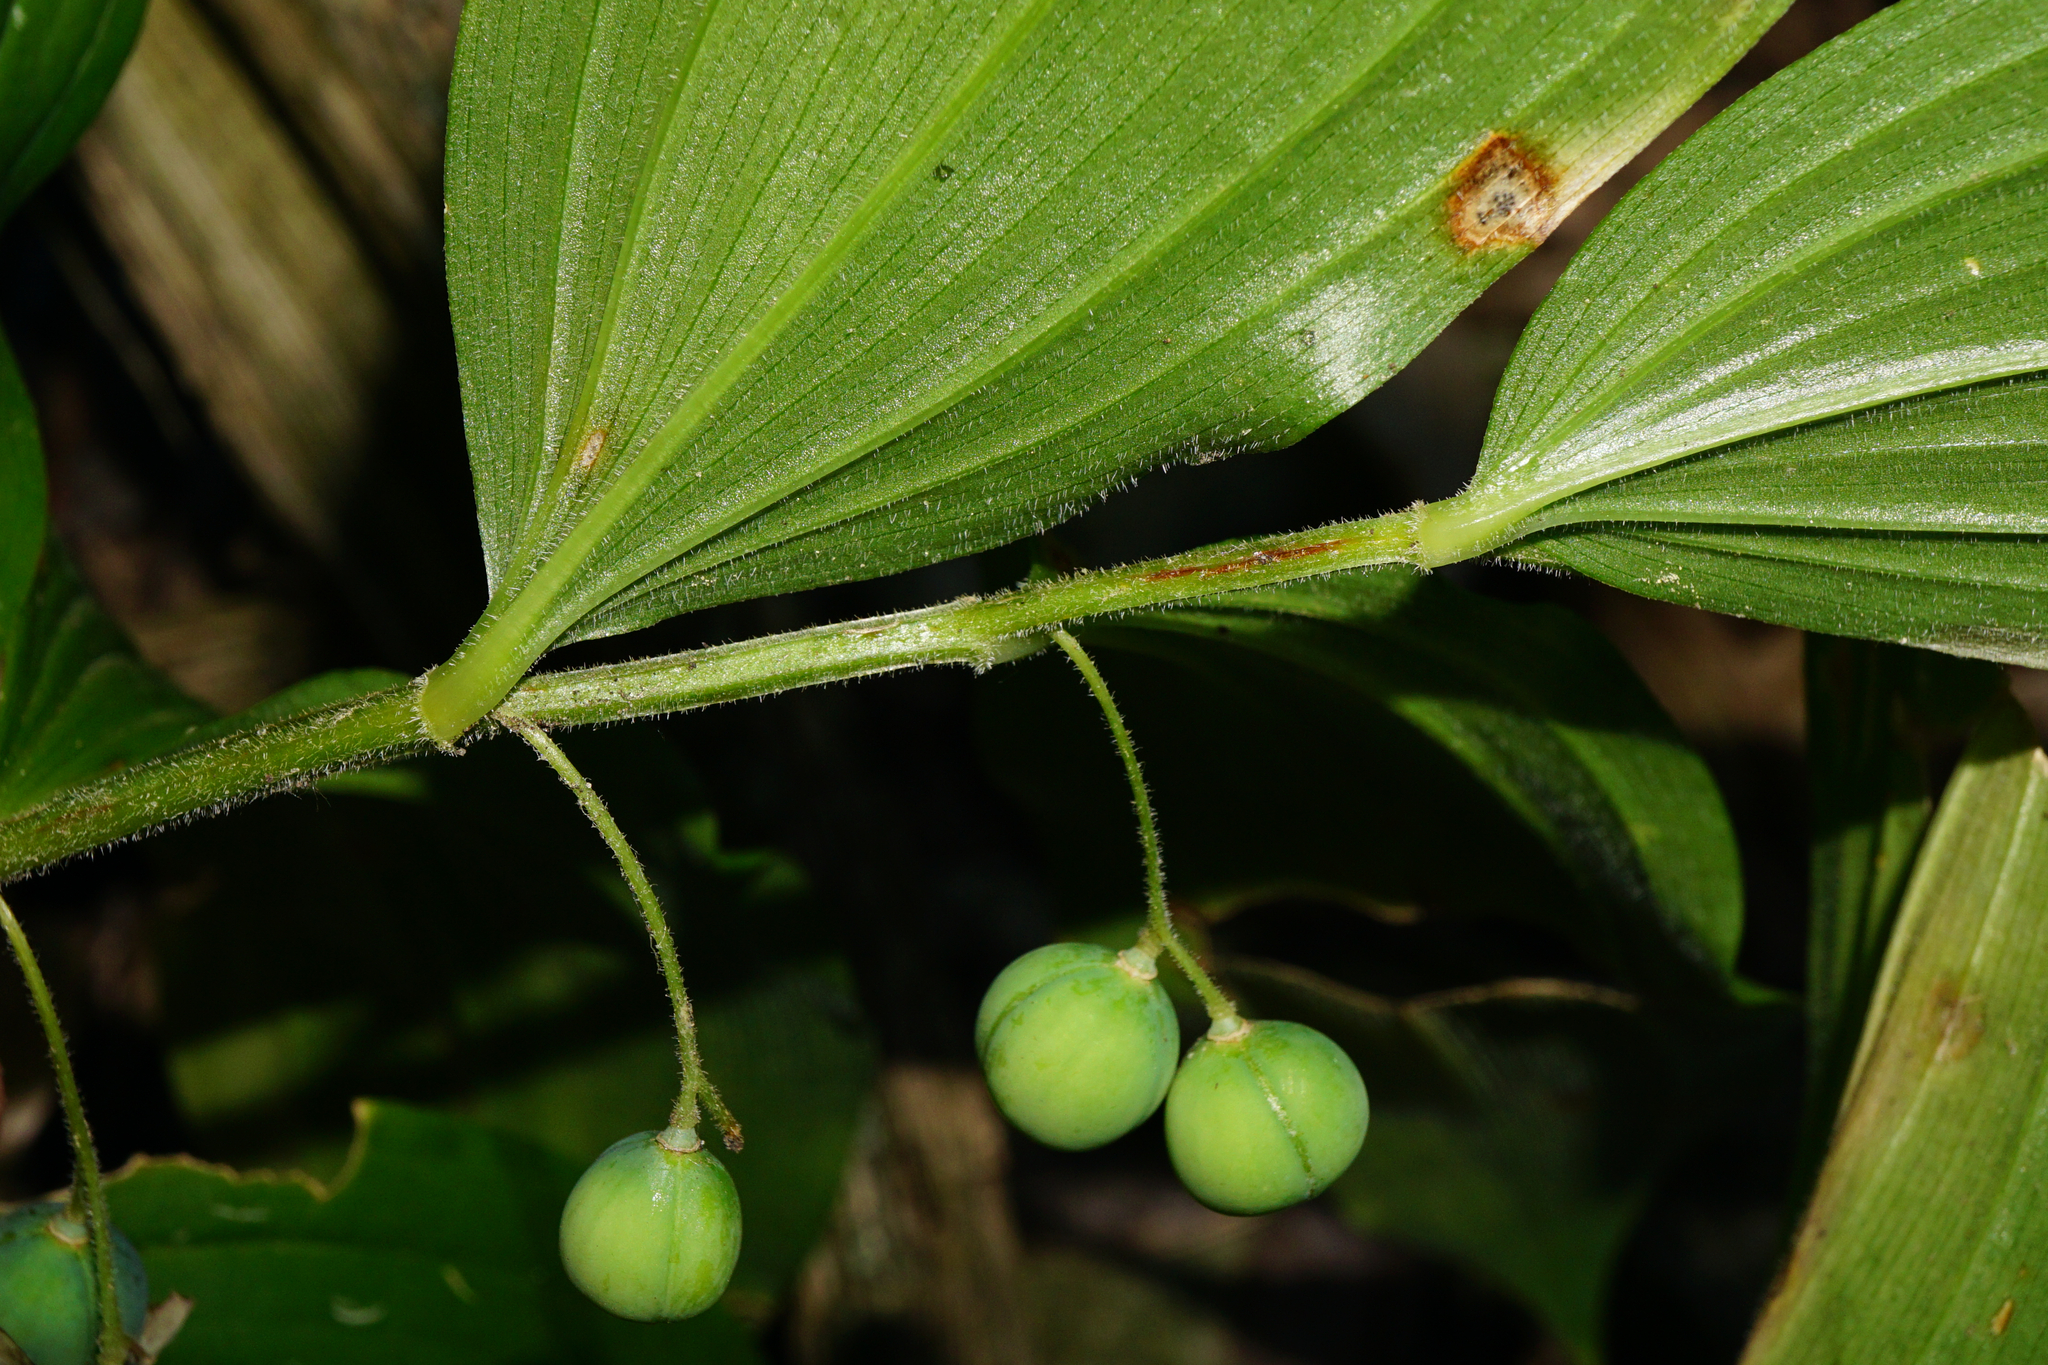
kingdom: Plantae
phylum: Tracheophyta
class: Liliopsida
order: Asparagales
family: Asparagaceae
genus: Polygonatum
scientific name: Polygonatum latifolium
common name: Broadleaf solomon's seal
